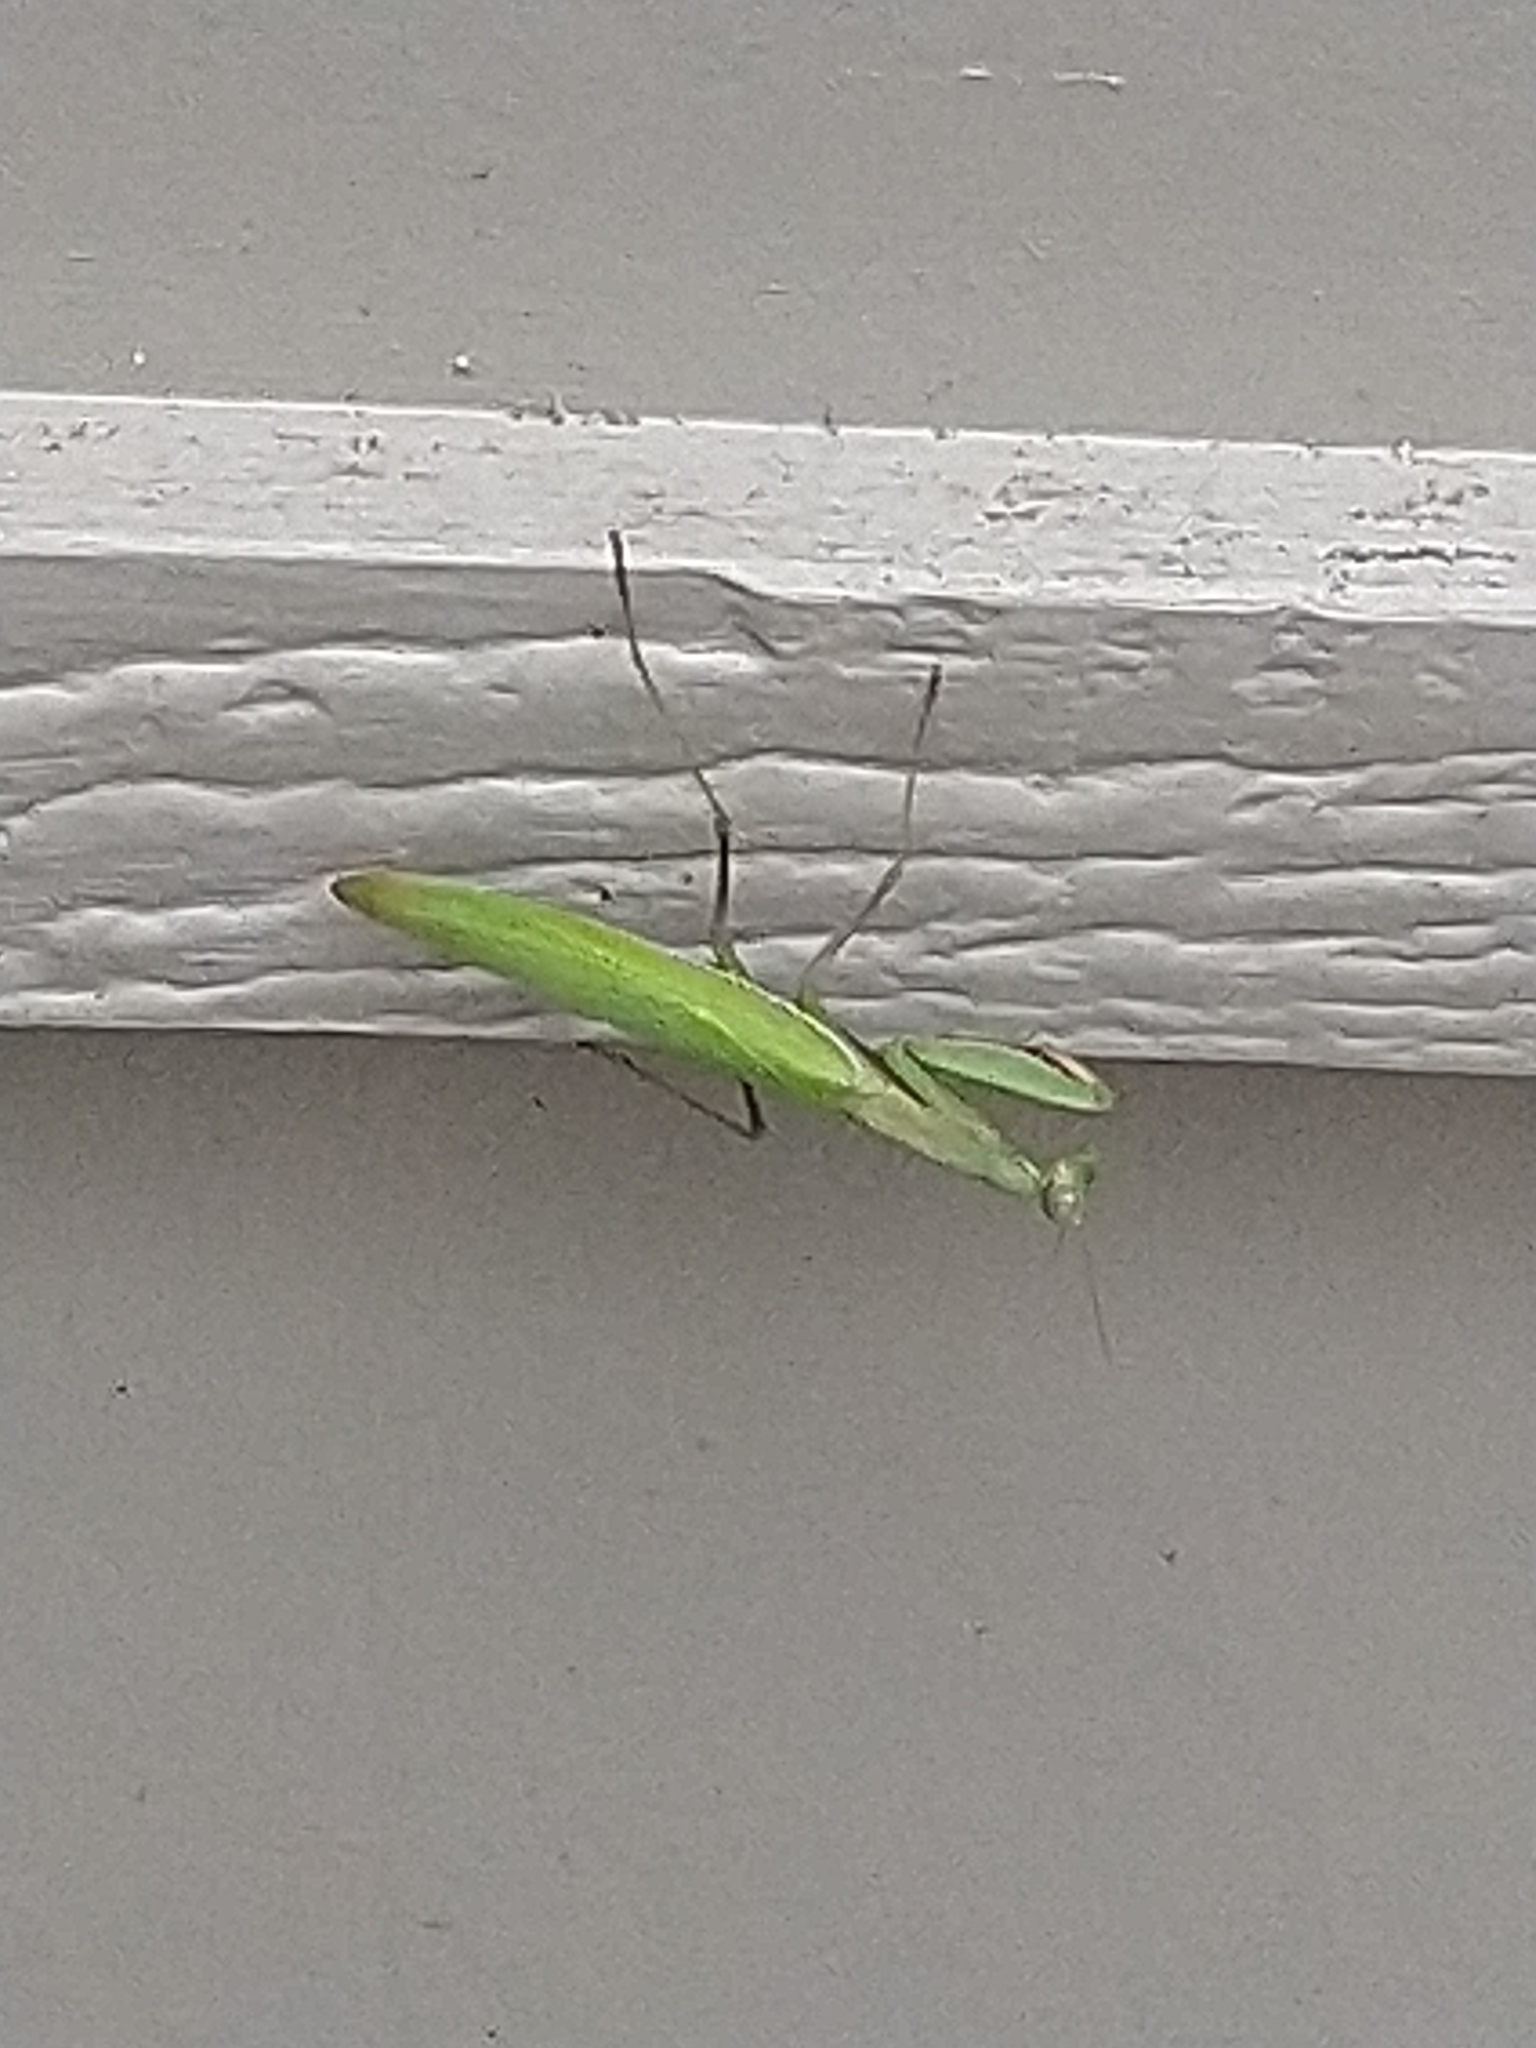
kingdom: Animalia
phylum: Arthropoda
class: Insecta
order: Mantodea
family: Mantidae
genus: Mantis
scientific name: Mantis religiosa
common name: Praying mantis
